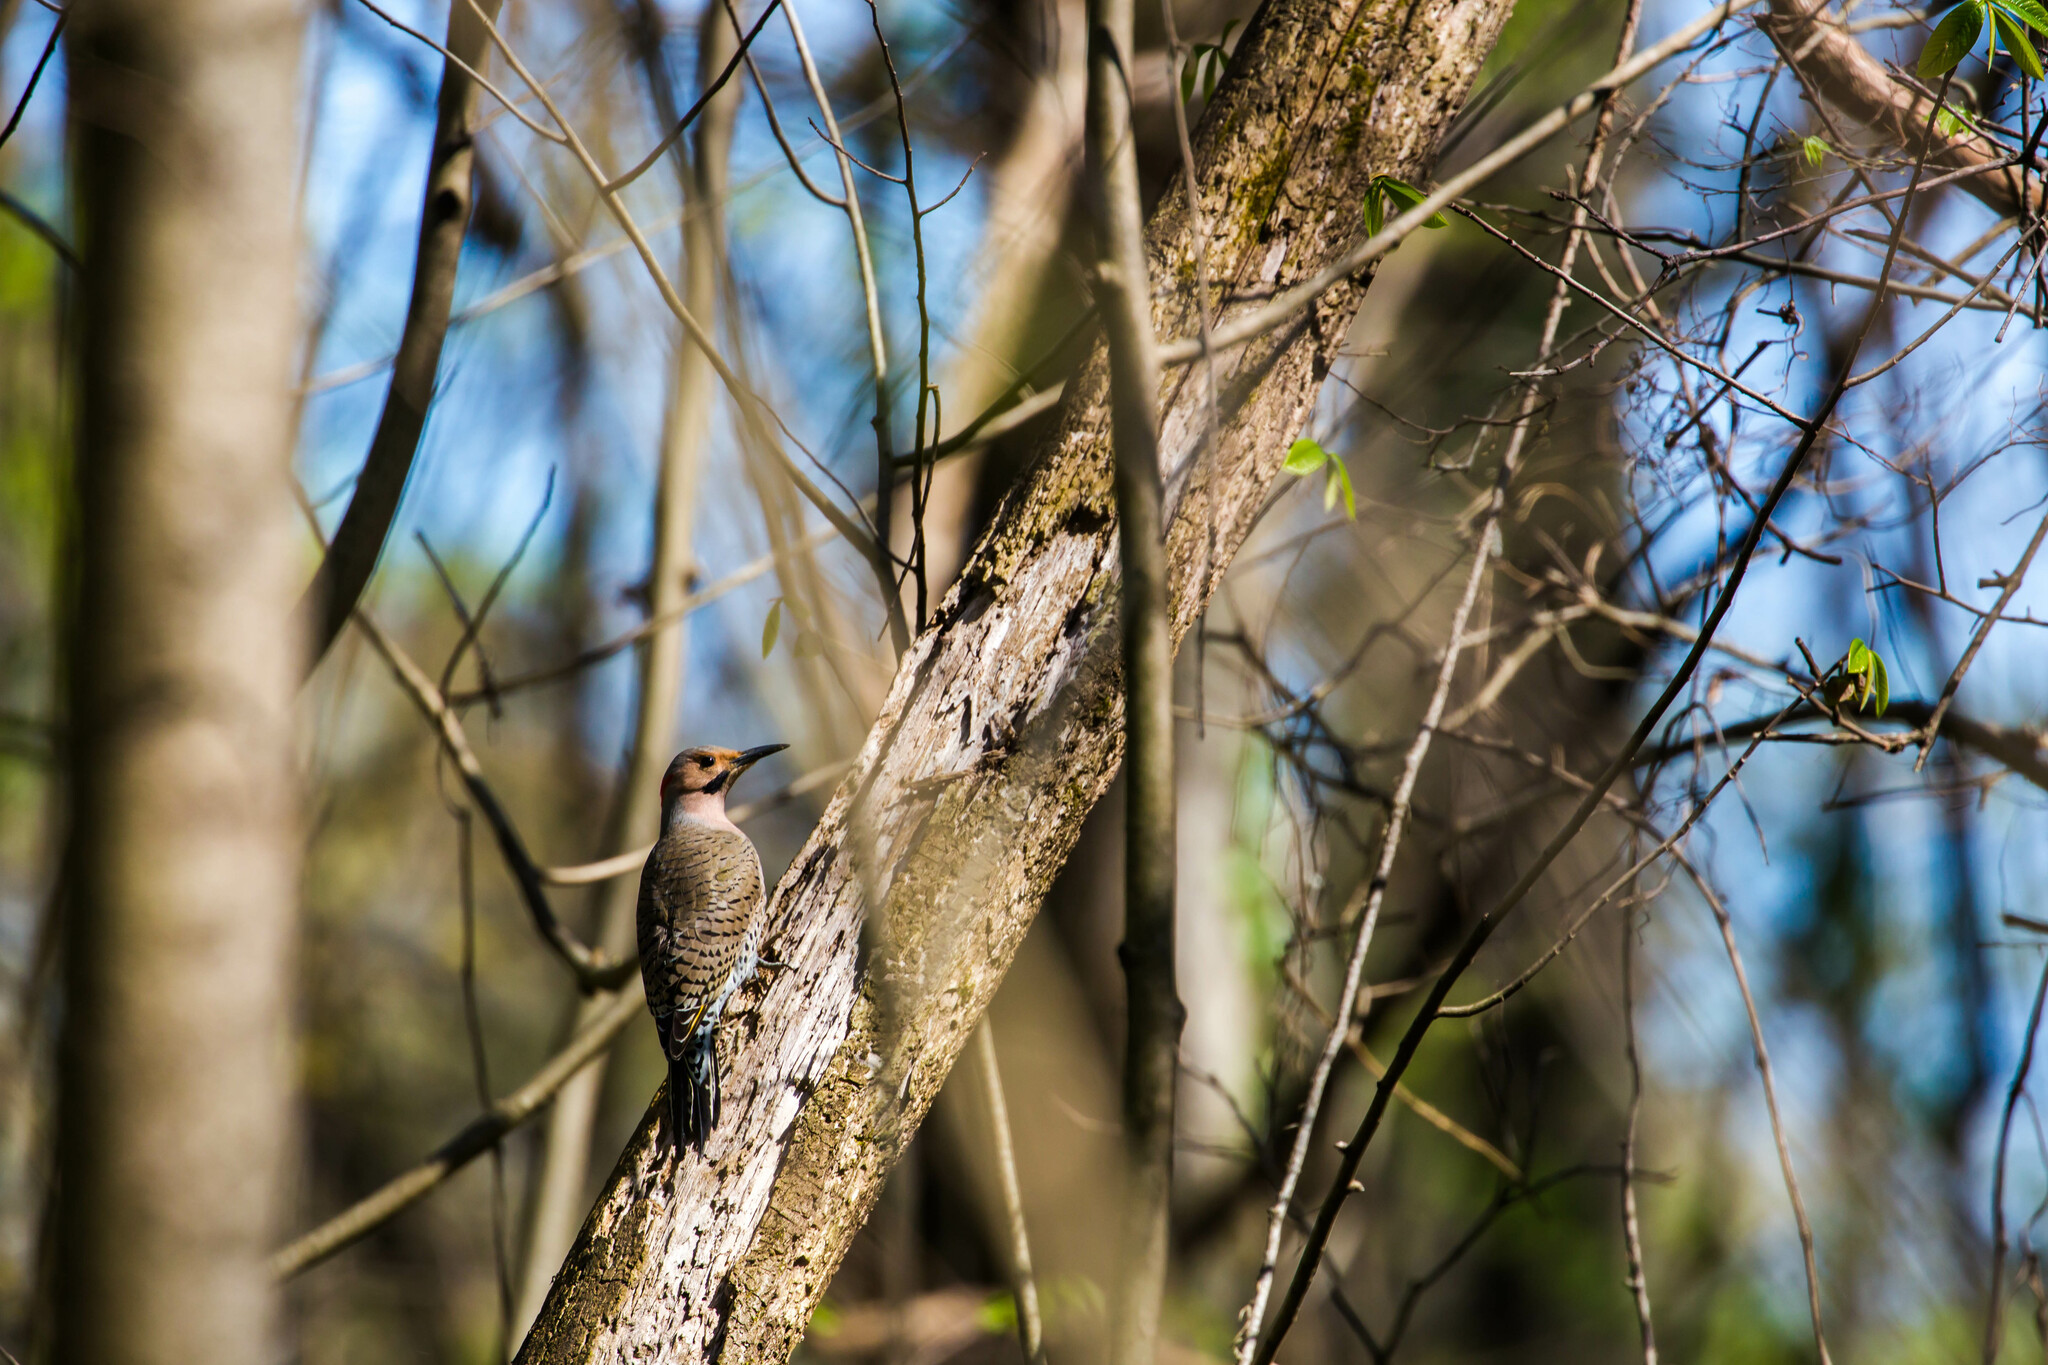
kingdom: Animalia
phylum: Chordata
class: Aves
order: Piciformes
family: Picidae
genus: Colaptes
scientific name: Colaptes auratus
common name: Northern flicker
